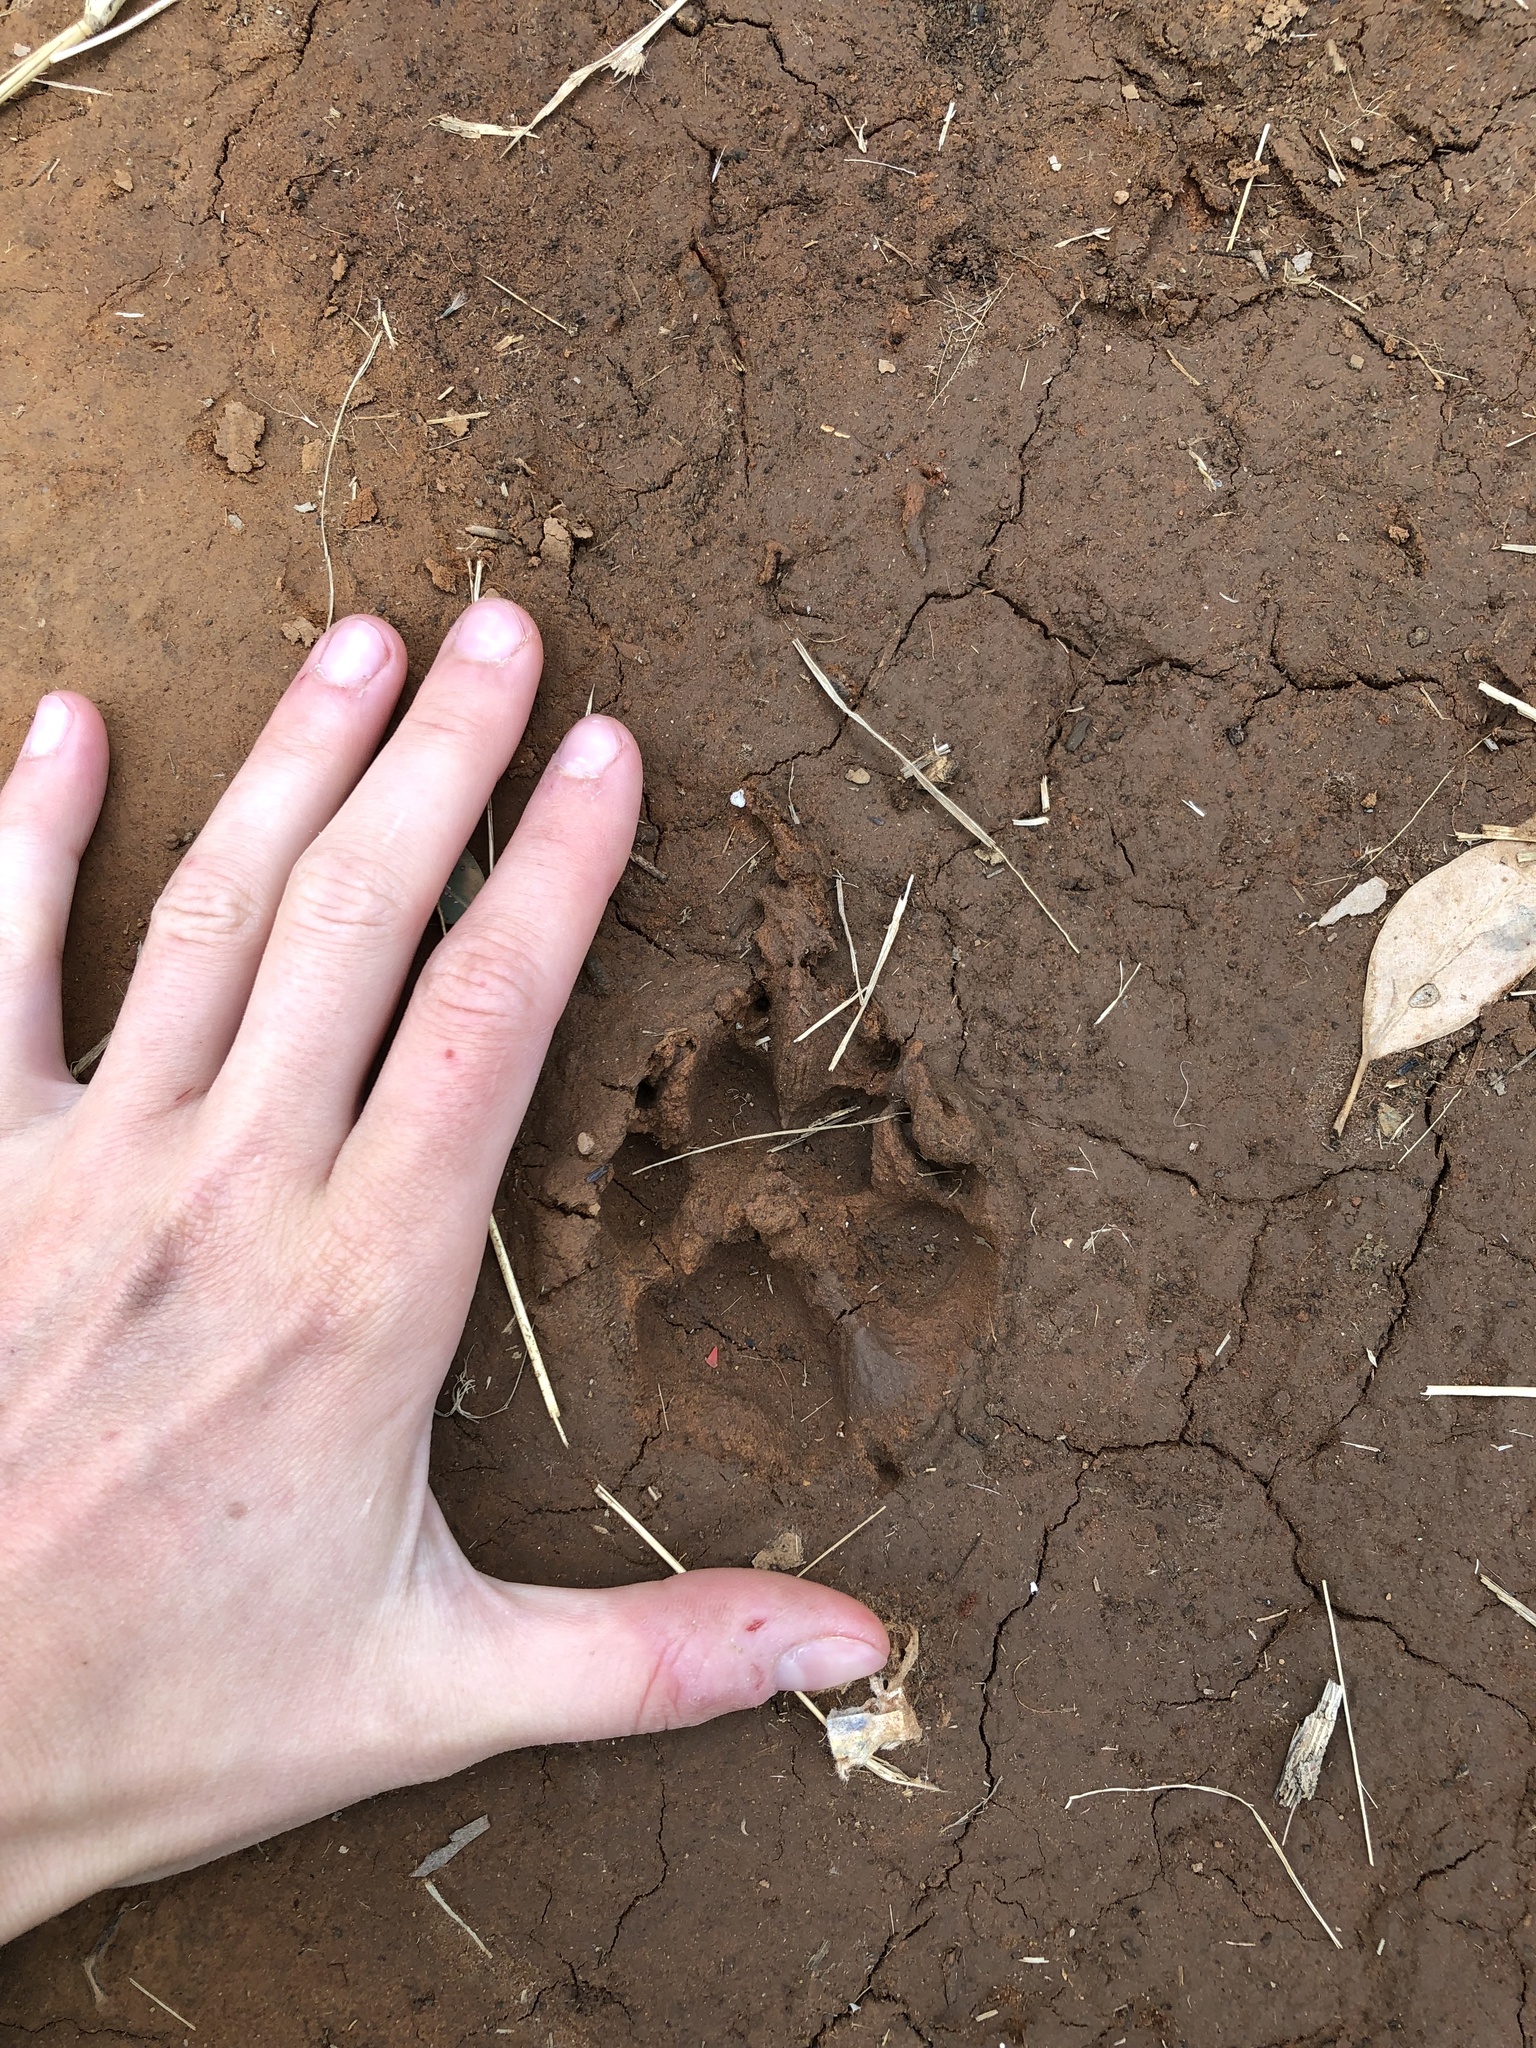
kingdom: Animalia
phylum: Chordata
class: Mammalia
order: Carnivora
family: Canidae
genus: Canis
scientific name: Canis lupus
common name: Gray wolf
